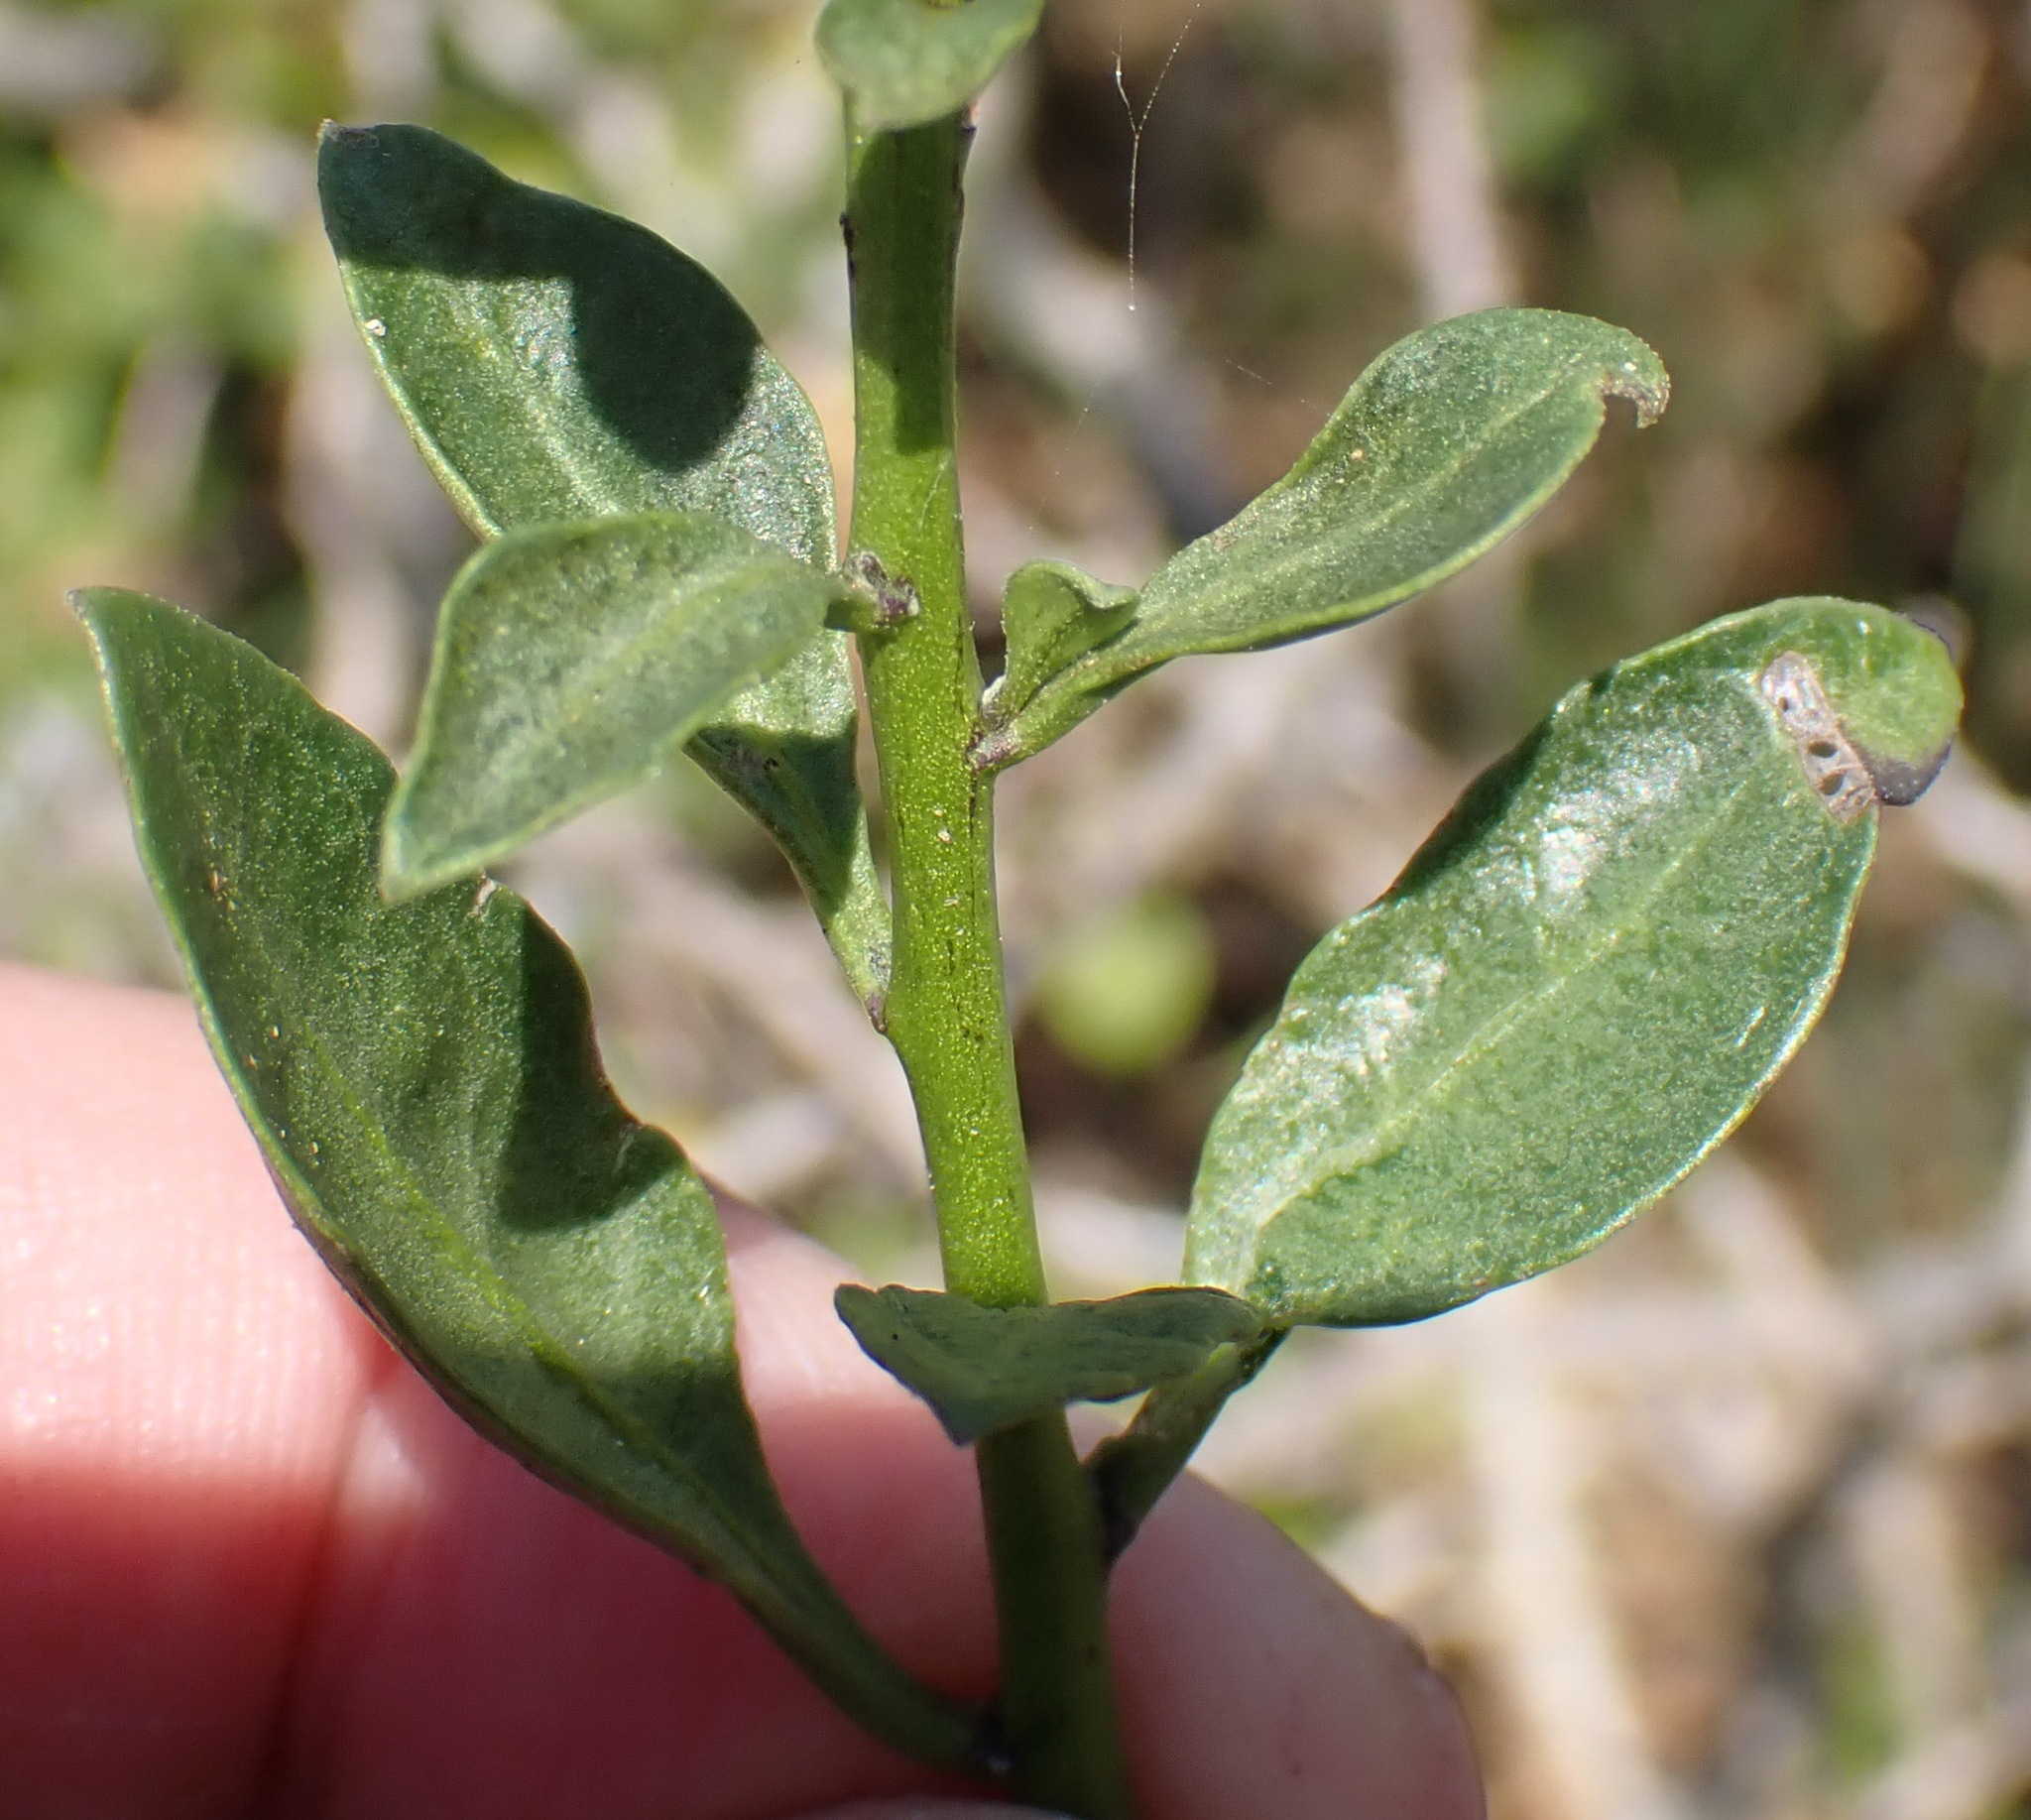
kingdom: Plantae
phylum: Tracheophyta
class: Magnoliopsida
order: Solanales
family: Solanaceae
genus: Solanum
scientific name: Solanum africanum
